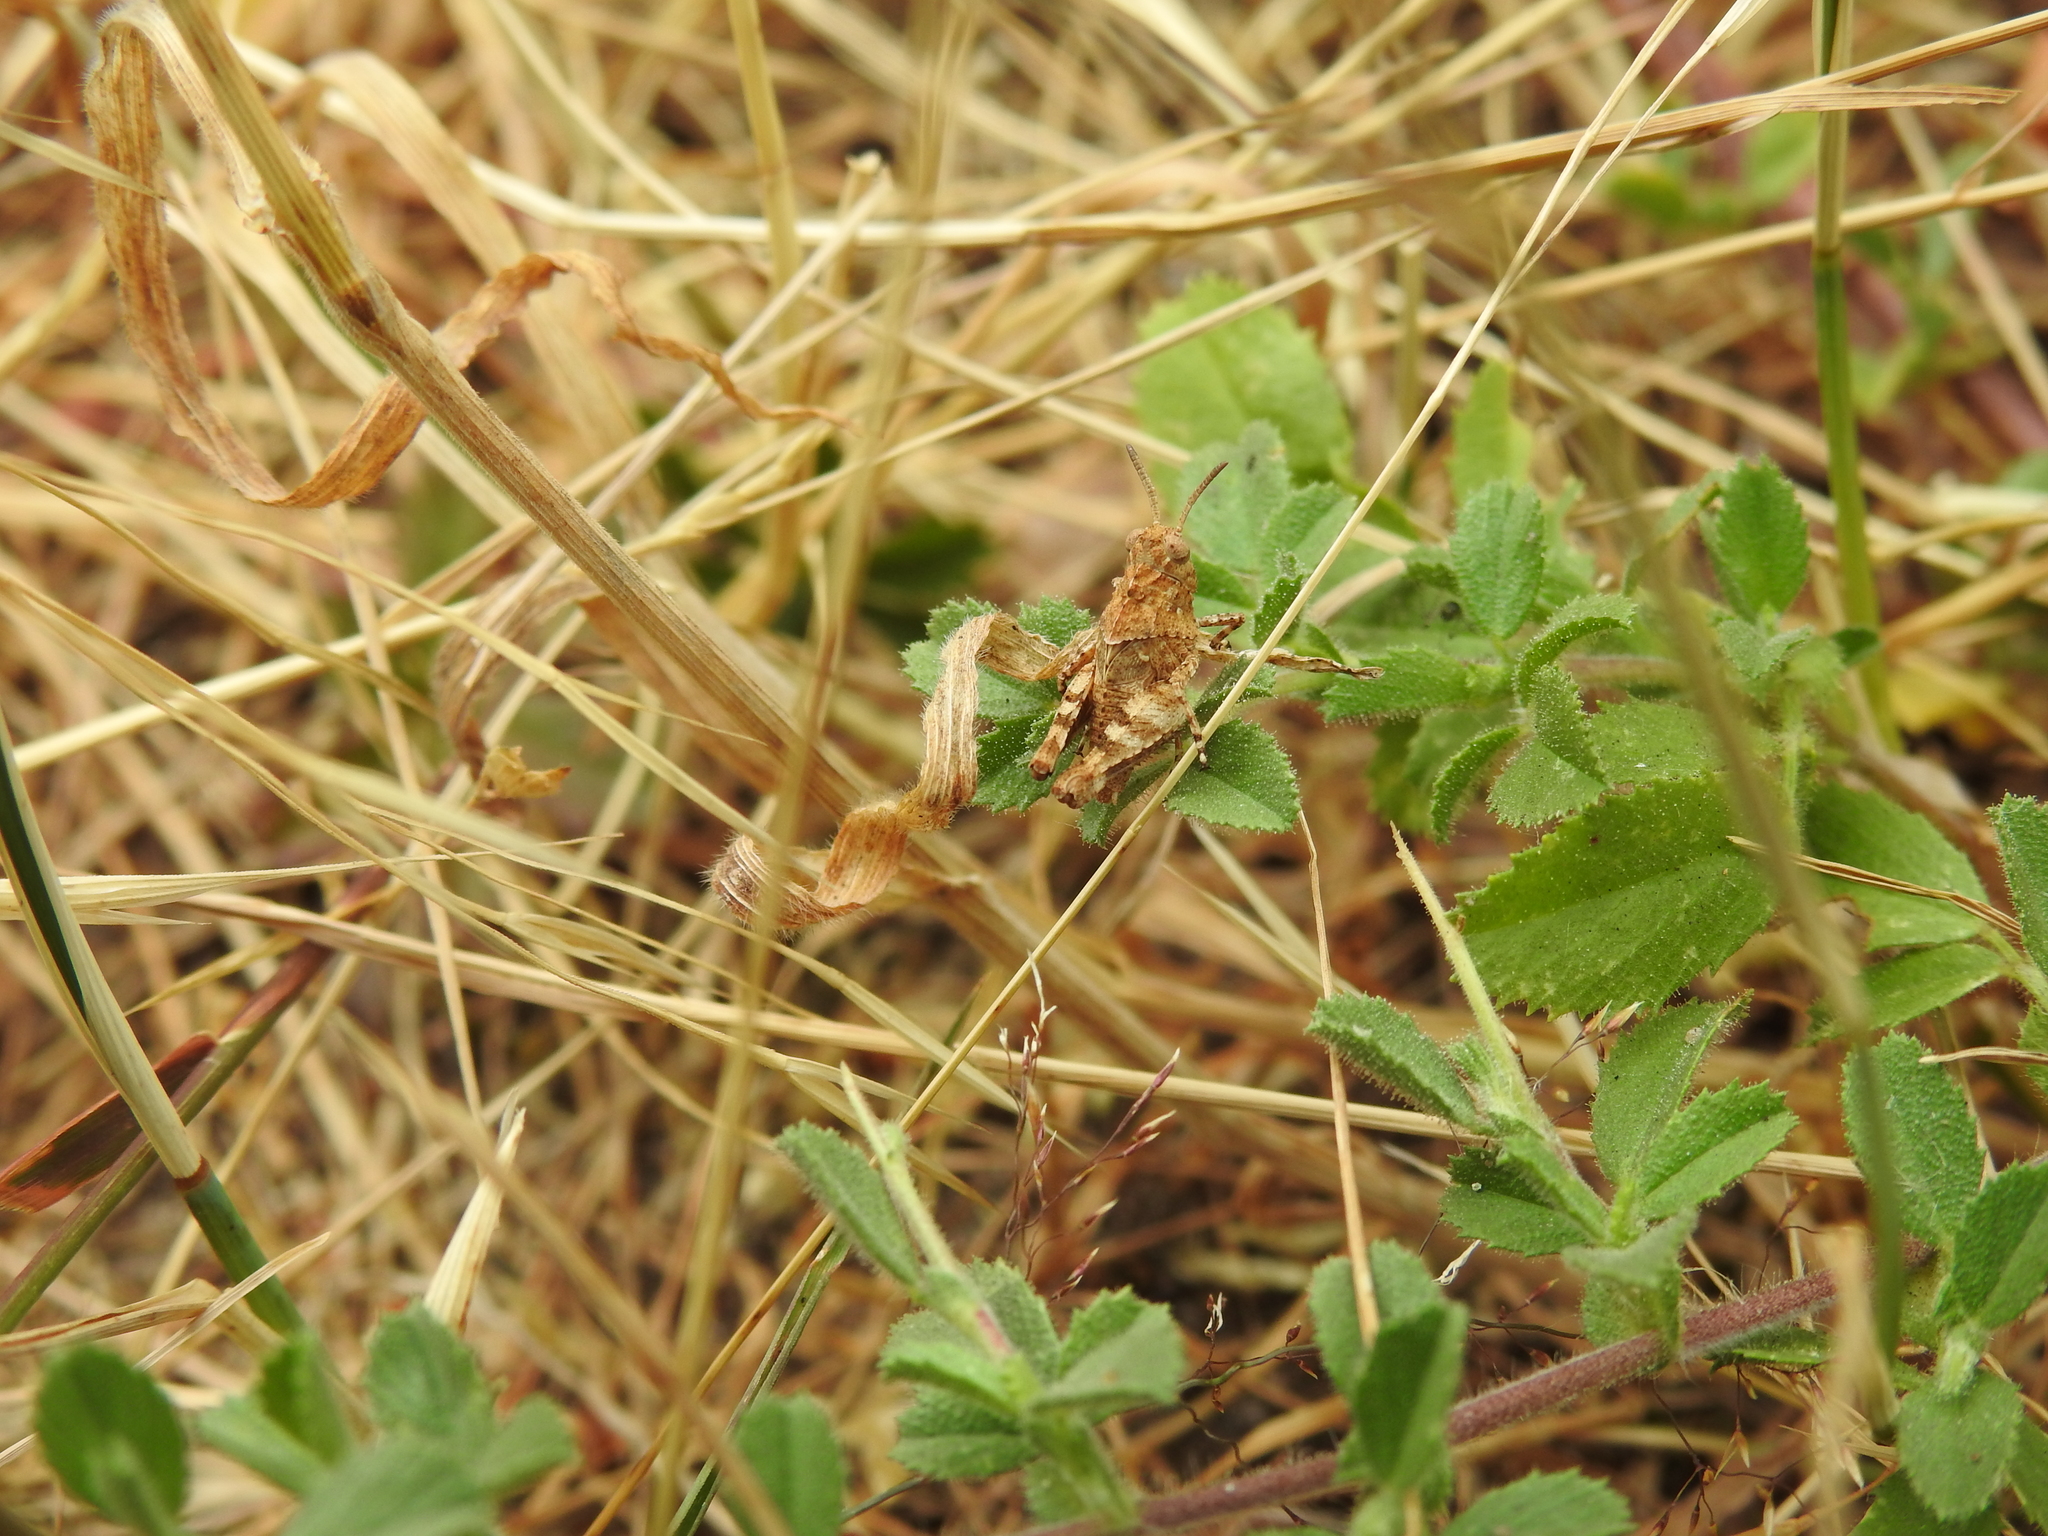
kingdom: Animalia
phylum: Arthropoda
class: Insecta
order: Orthoptera
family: Acrididae
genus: Oedipoda
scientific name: Oedipoda caerulescens
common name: Blue-winged grasshopper
